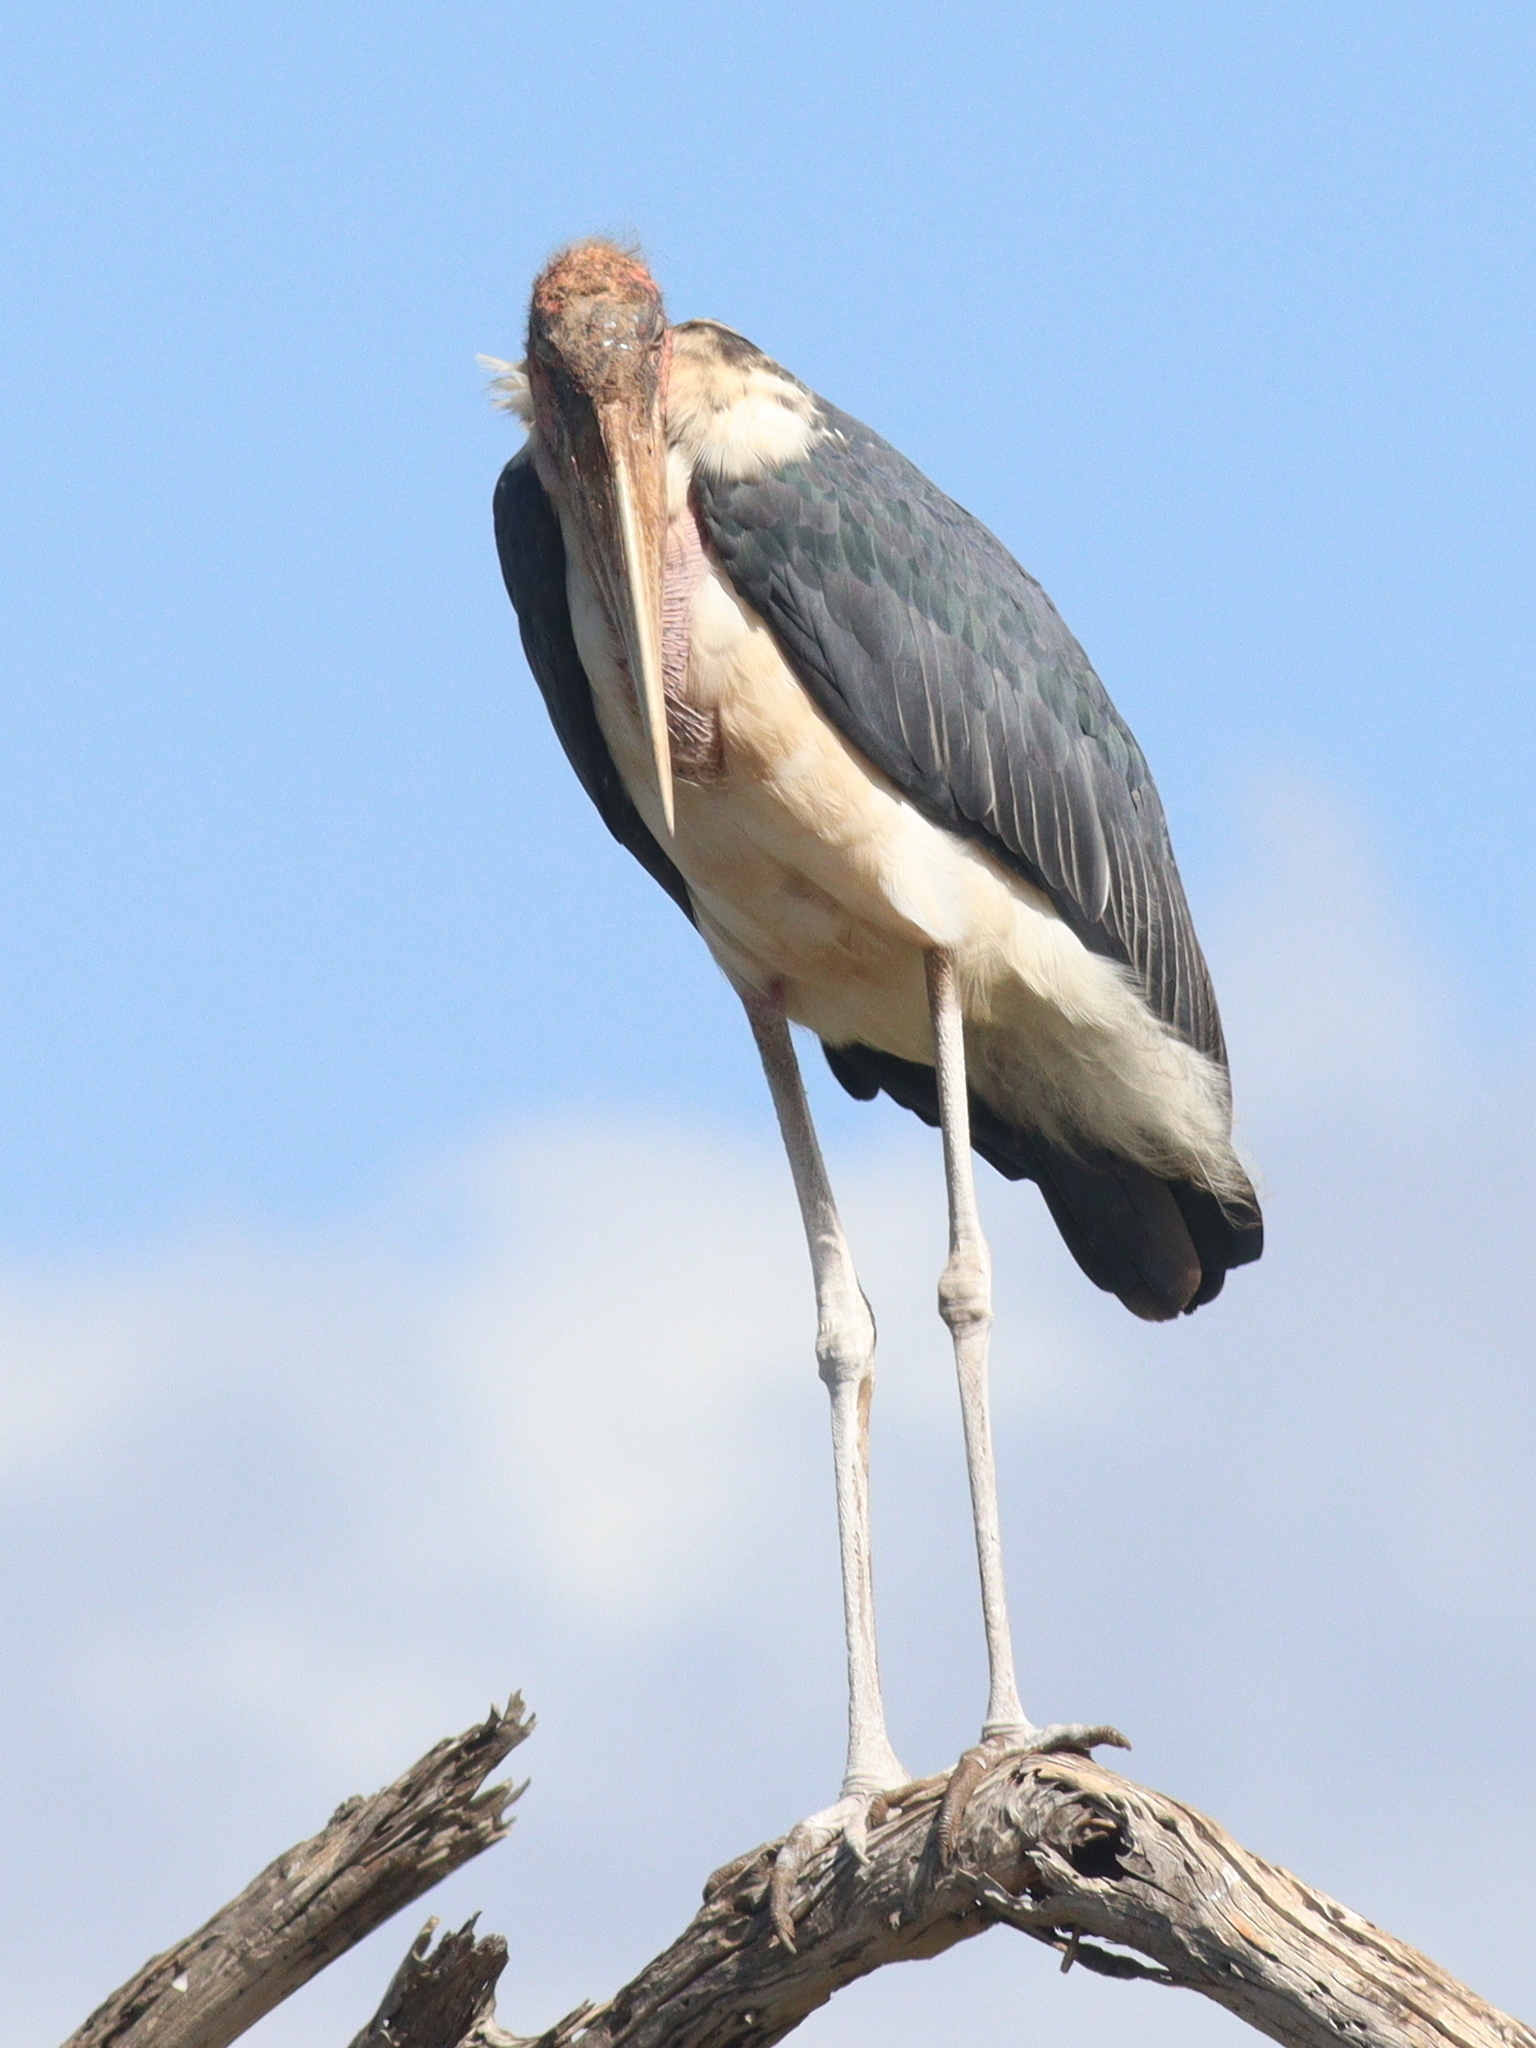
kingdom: Animalia
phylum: Chordata
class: Aves
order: Ciconiiformes
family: Ciconiidae
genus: Leptoptilos
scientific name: Leptoptilos crumenifer
